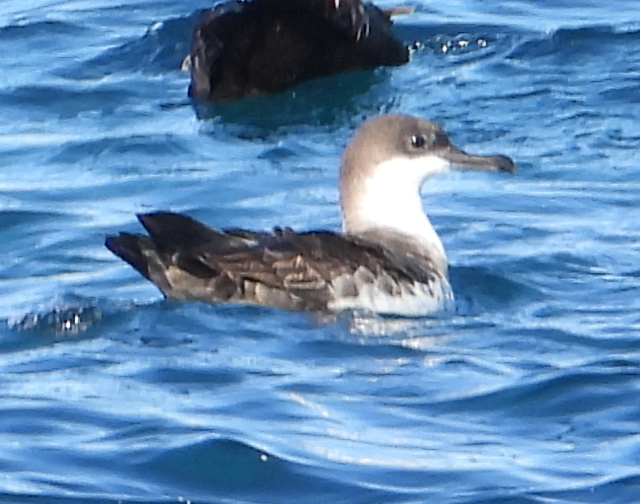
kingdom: Animalia
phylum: Chordata
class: Aves
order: Procellariiformes
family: Procellariidae
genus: Puffinus
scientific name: Puffinus gravis
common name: Great shearwater
